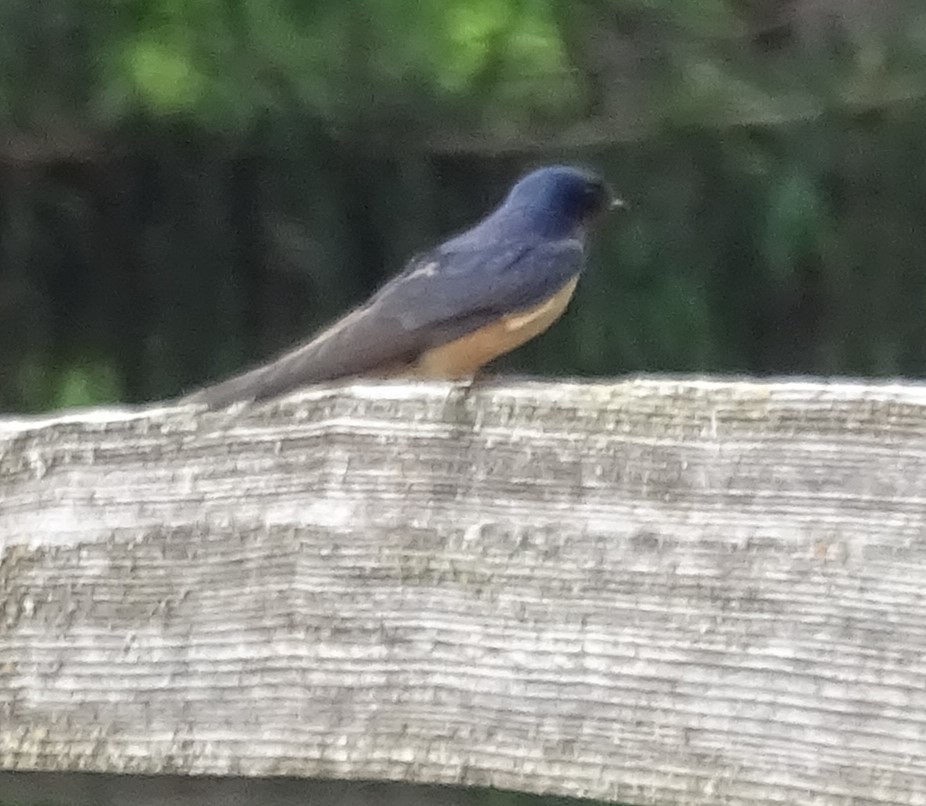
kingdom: Animalia
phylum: Chordata
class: Aves
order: Passeriformes
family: Hirundinidae
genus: Hirundo
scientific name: Hirundo rustica
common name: Barn swallow
